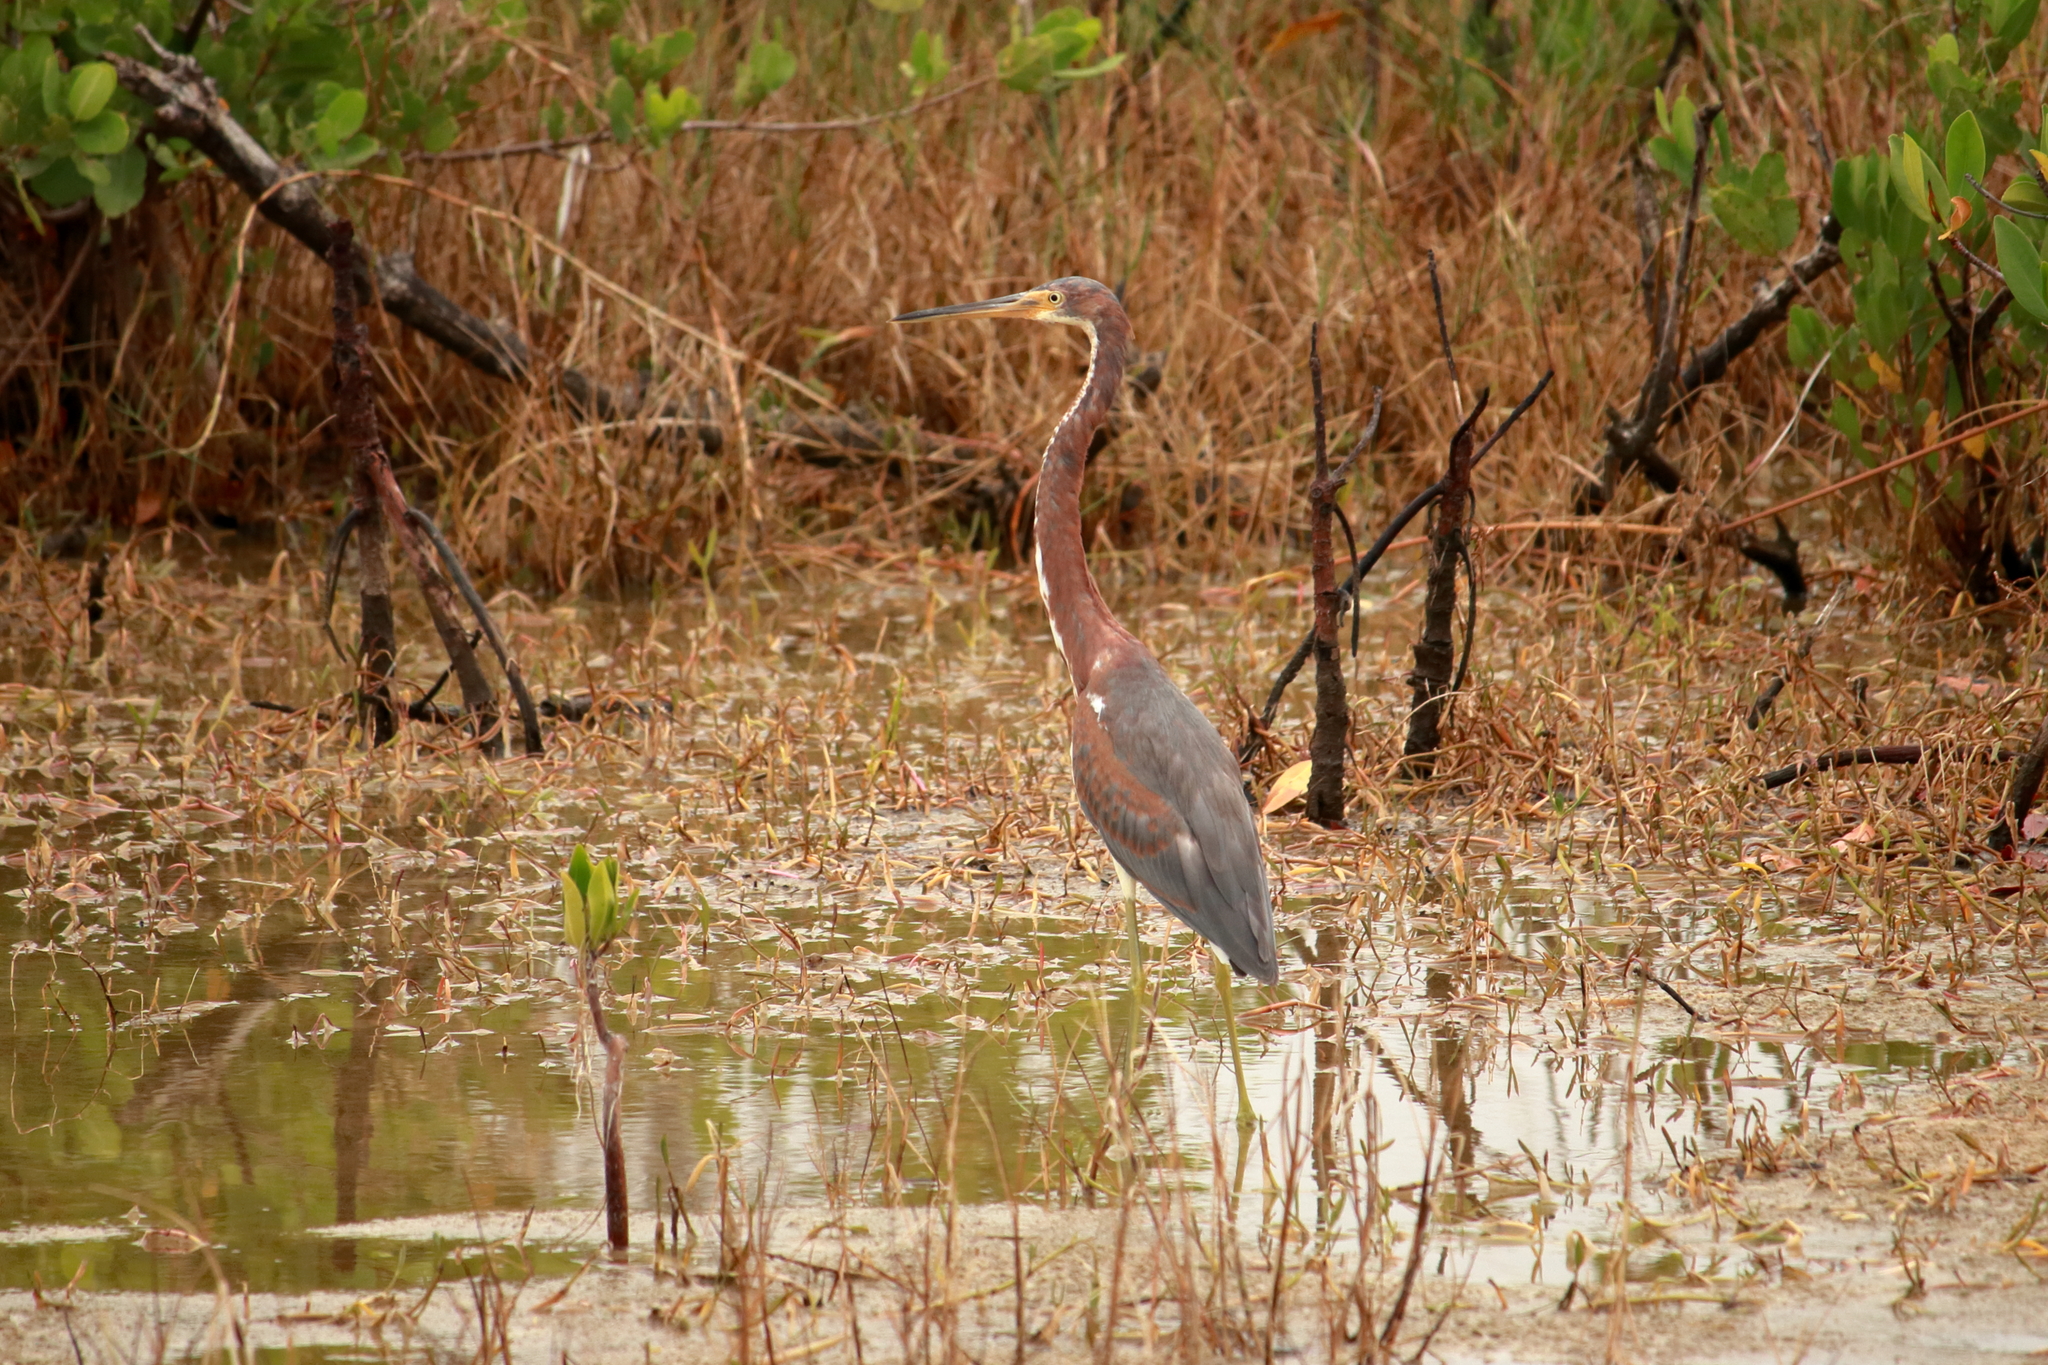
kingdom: Animalia
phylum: Chordata
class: Aves
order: Pelecaniformes
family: Ardeidae
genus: Egretta
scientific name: Egretta tricolor
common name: Tricolored heron
